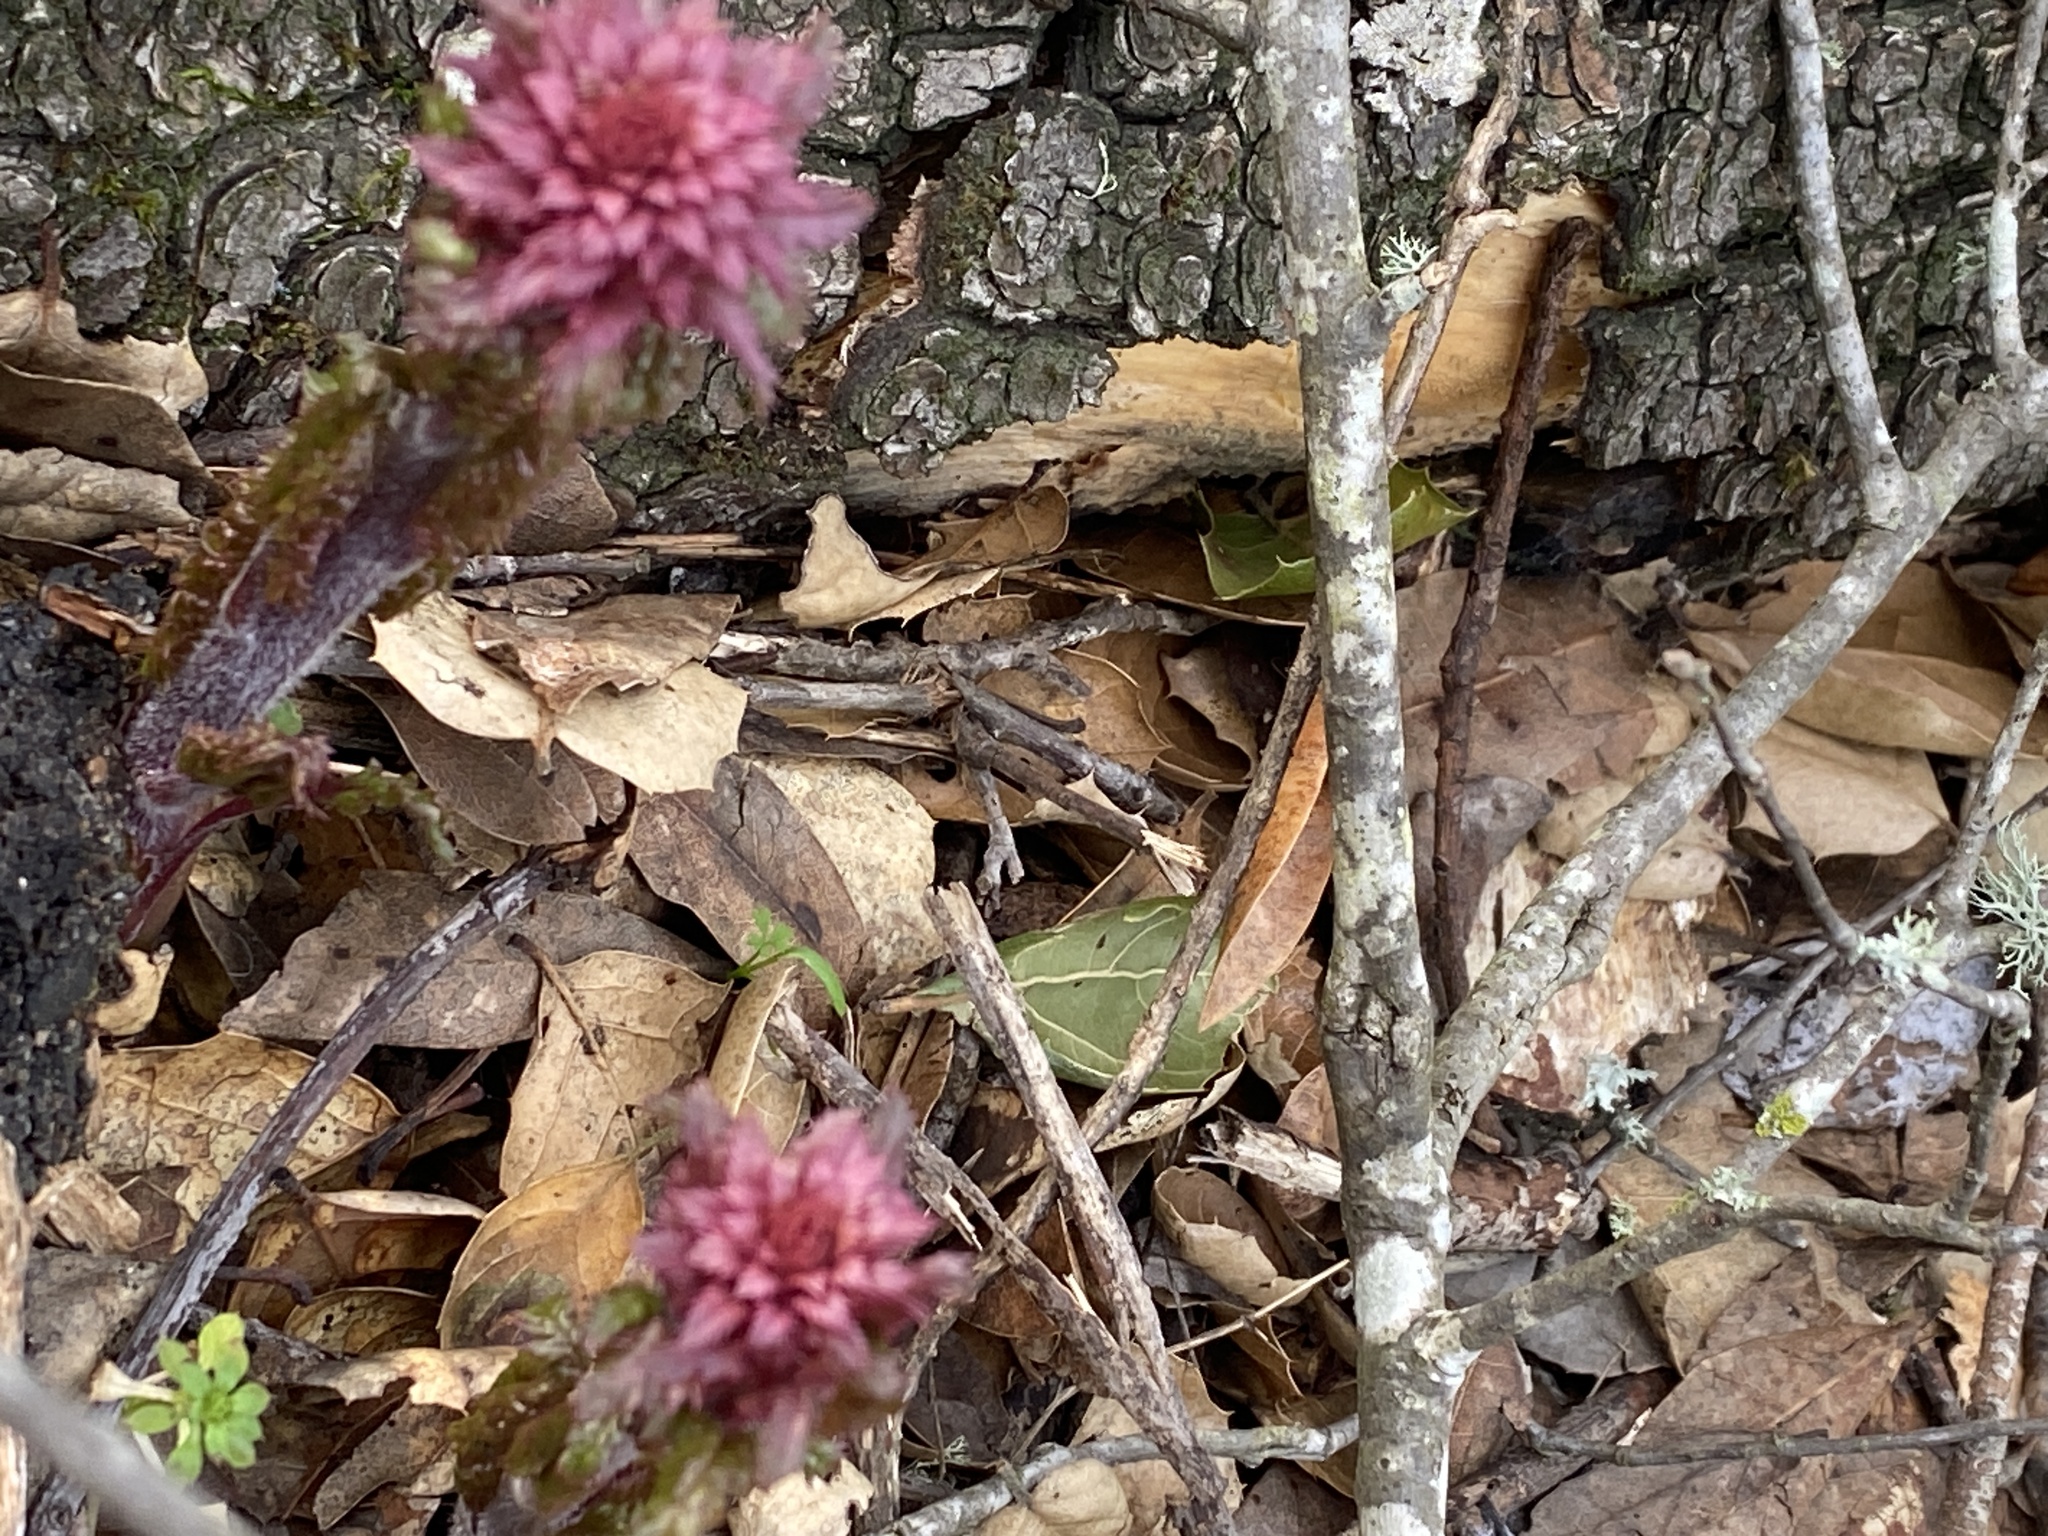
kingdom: Plantae
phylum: Tracheophyta
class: Magnoliopsida
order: Lamiales
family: Orobanchaceae
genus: Pedicularis
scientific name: Pedicularis densiflora
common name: Indian warrior
